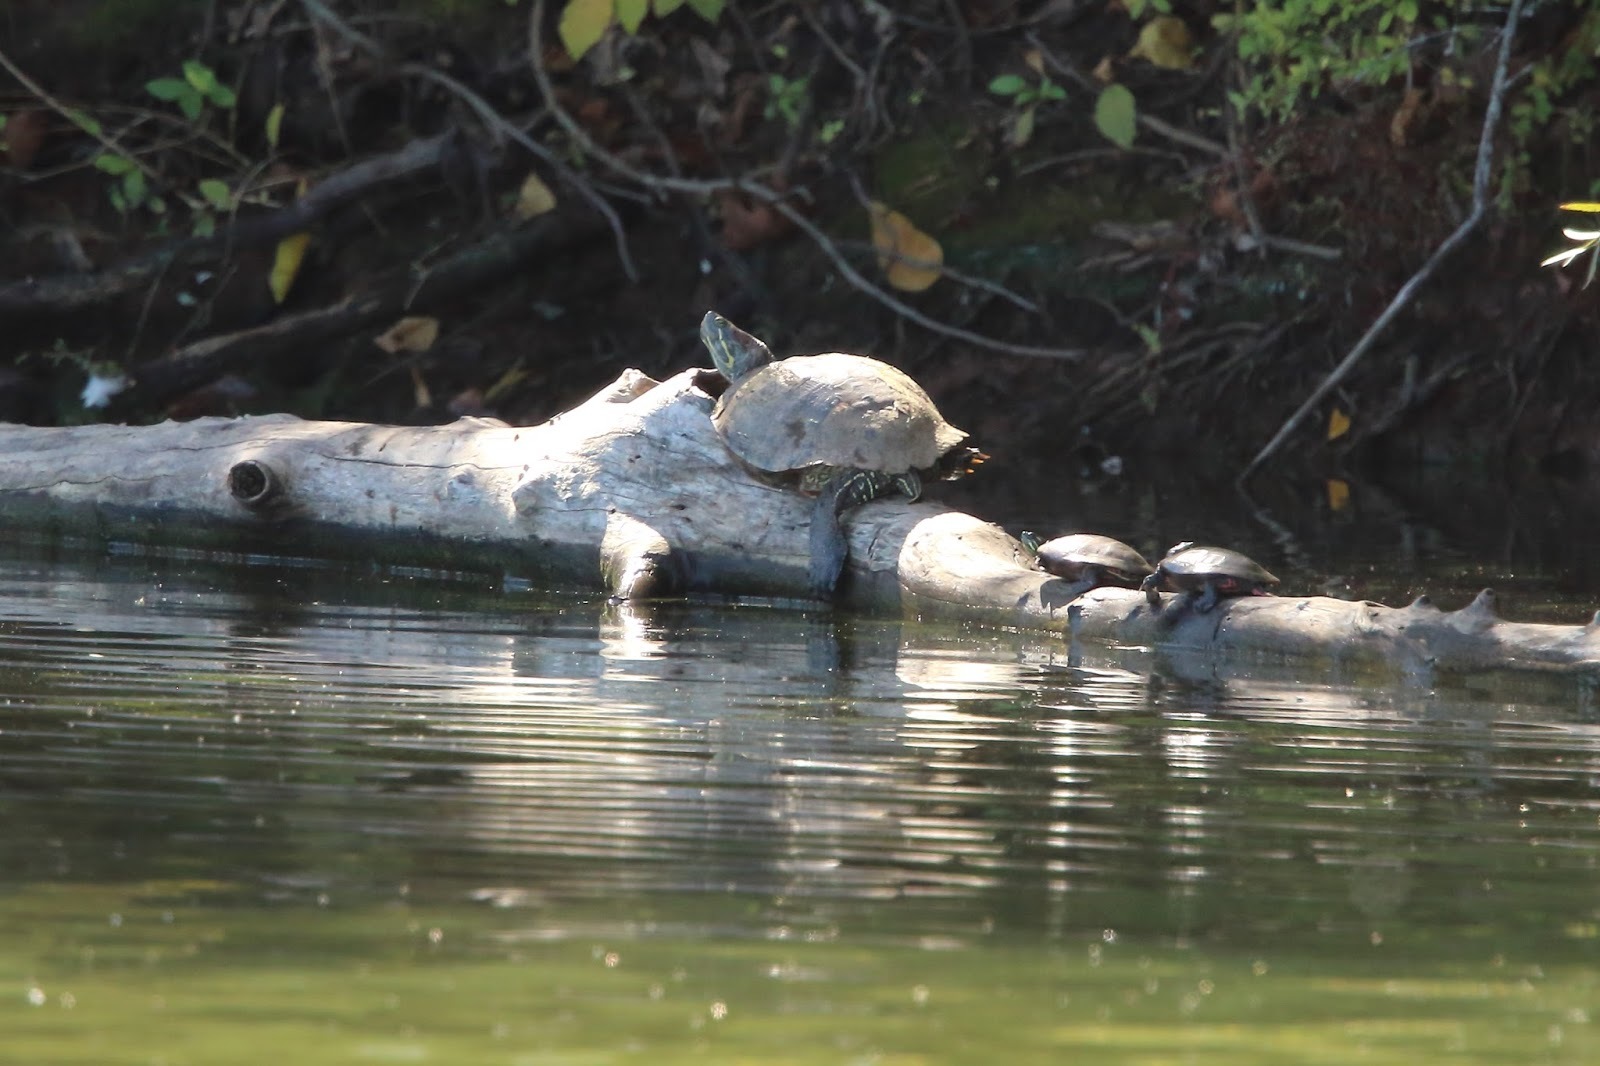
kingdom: Animalia
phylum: Chordata
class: Testudines
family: Emydidae
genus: Trachemys
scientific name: Trachemys scripta
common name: Slider
